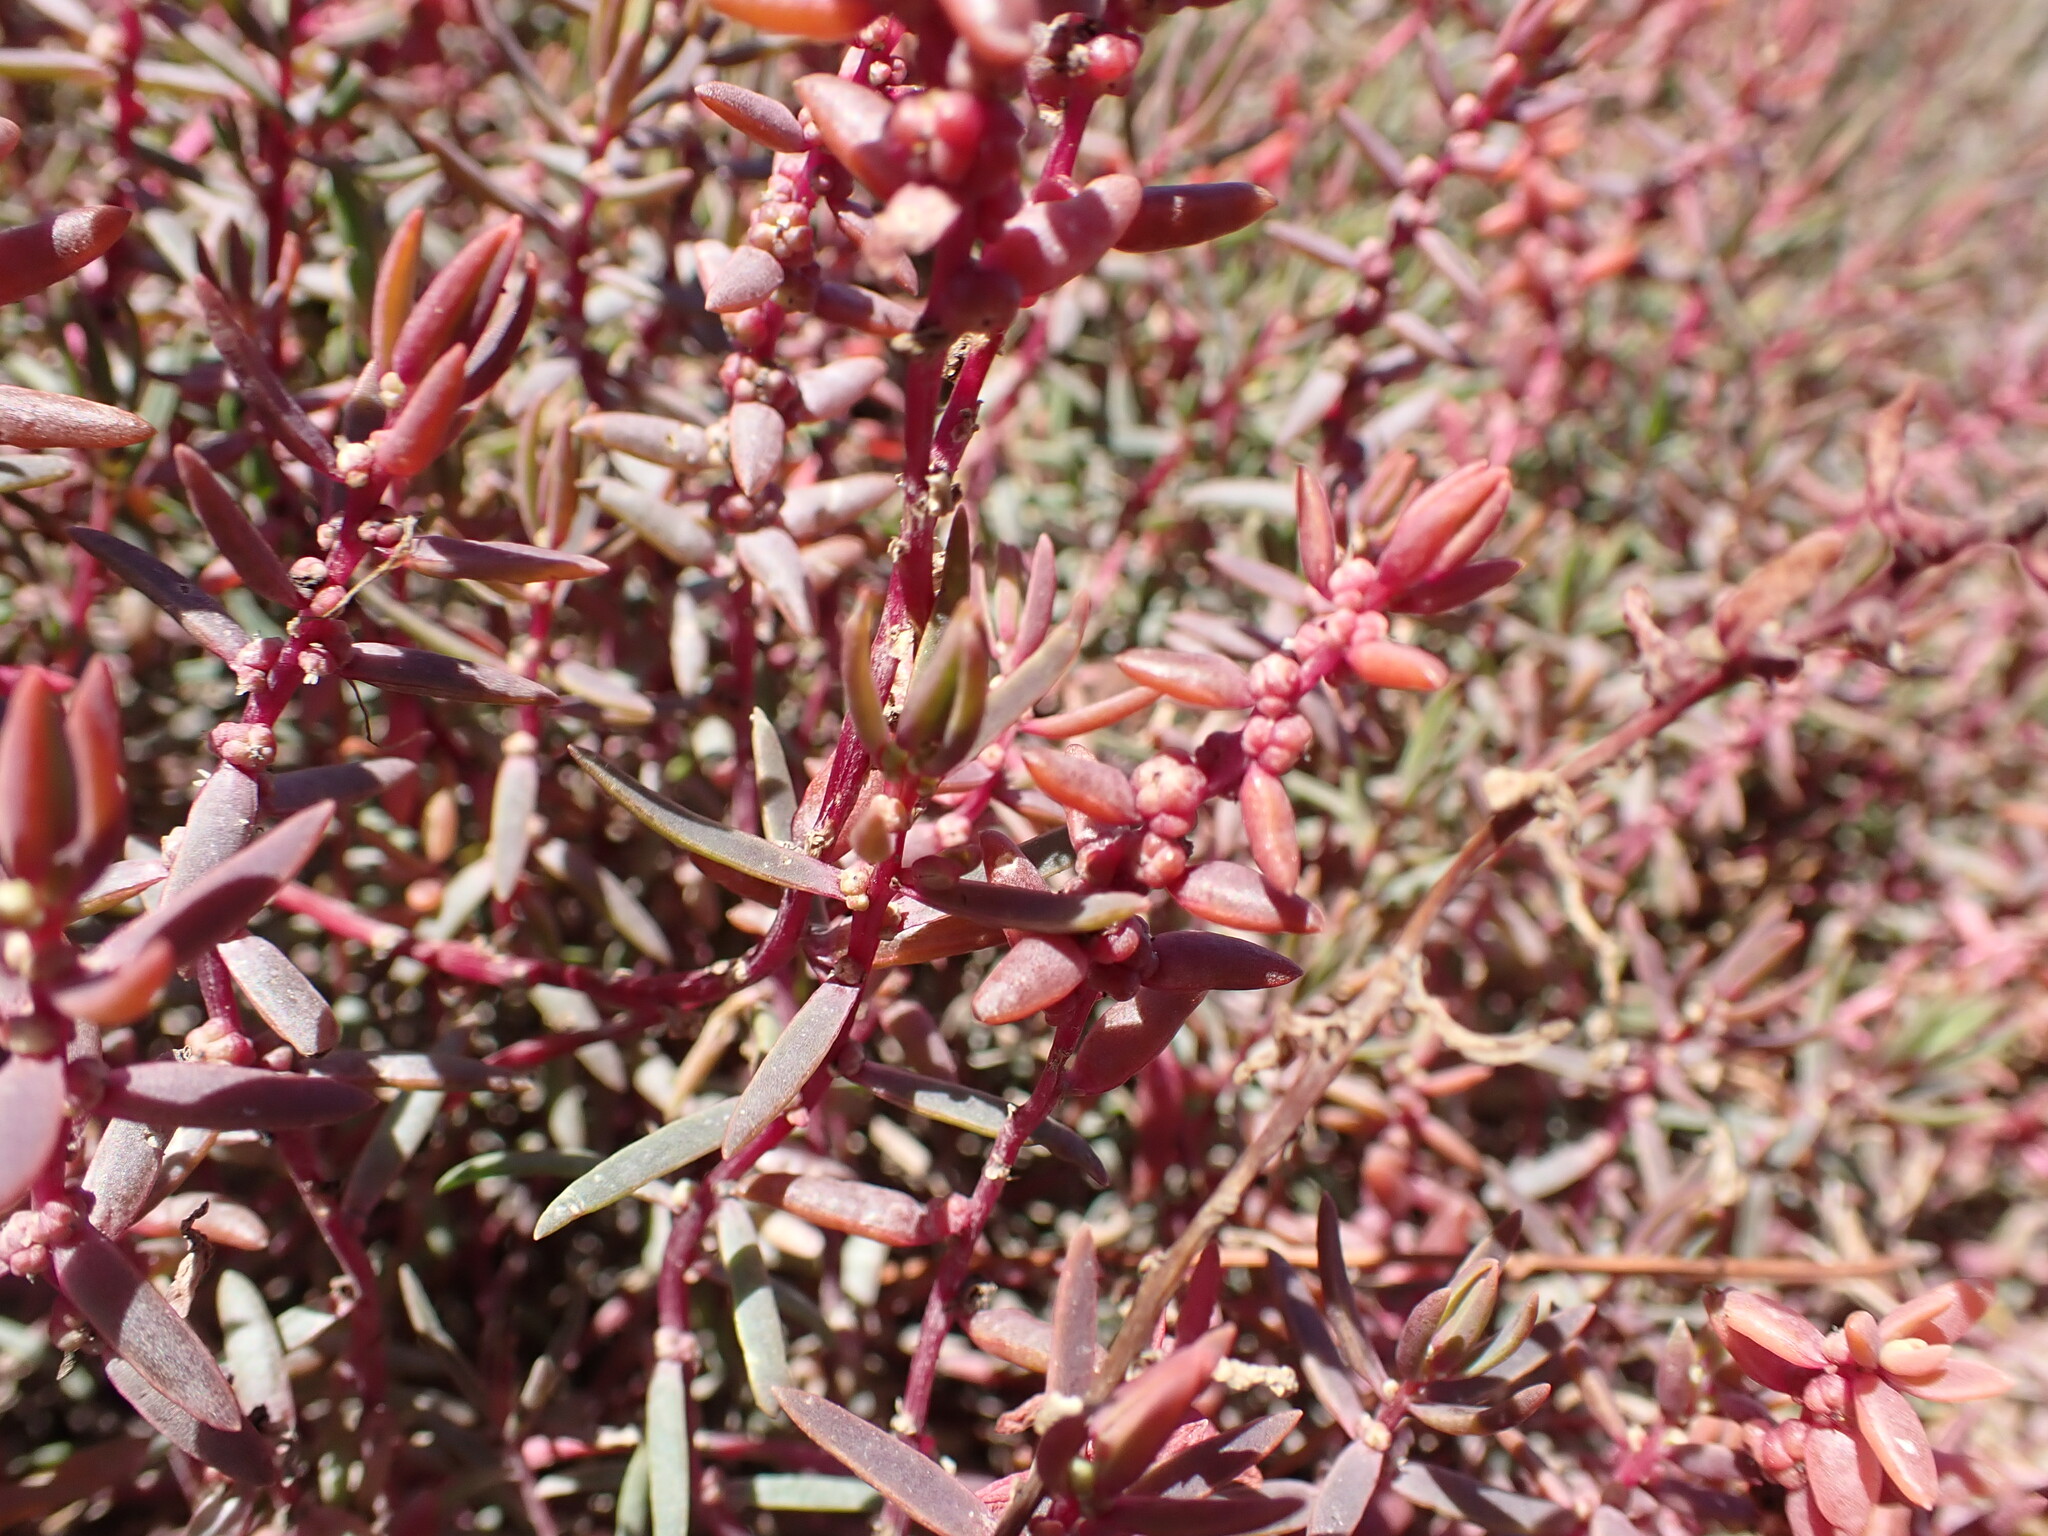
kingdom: Plantae
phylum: Tracheophyta
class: Magnoliopsida
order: Caryophyllales
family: Amaranthaceae
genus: Suaeda
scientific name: Suaeda novae-zelandiae
